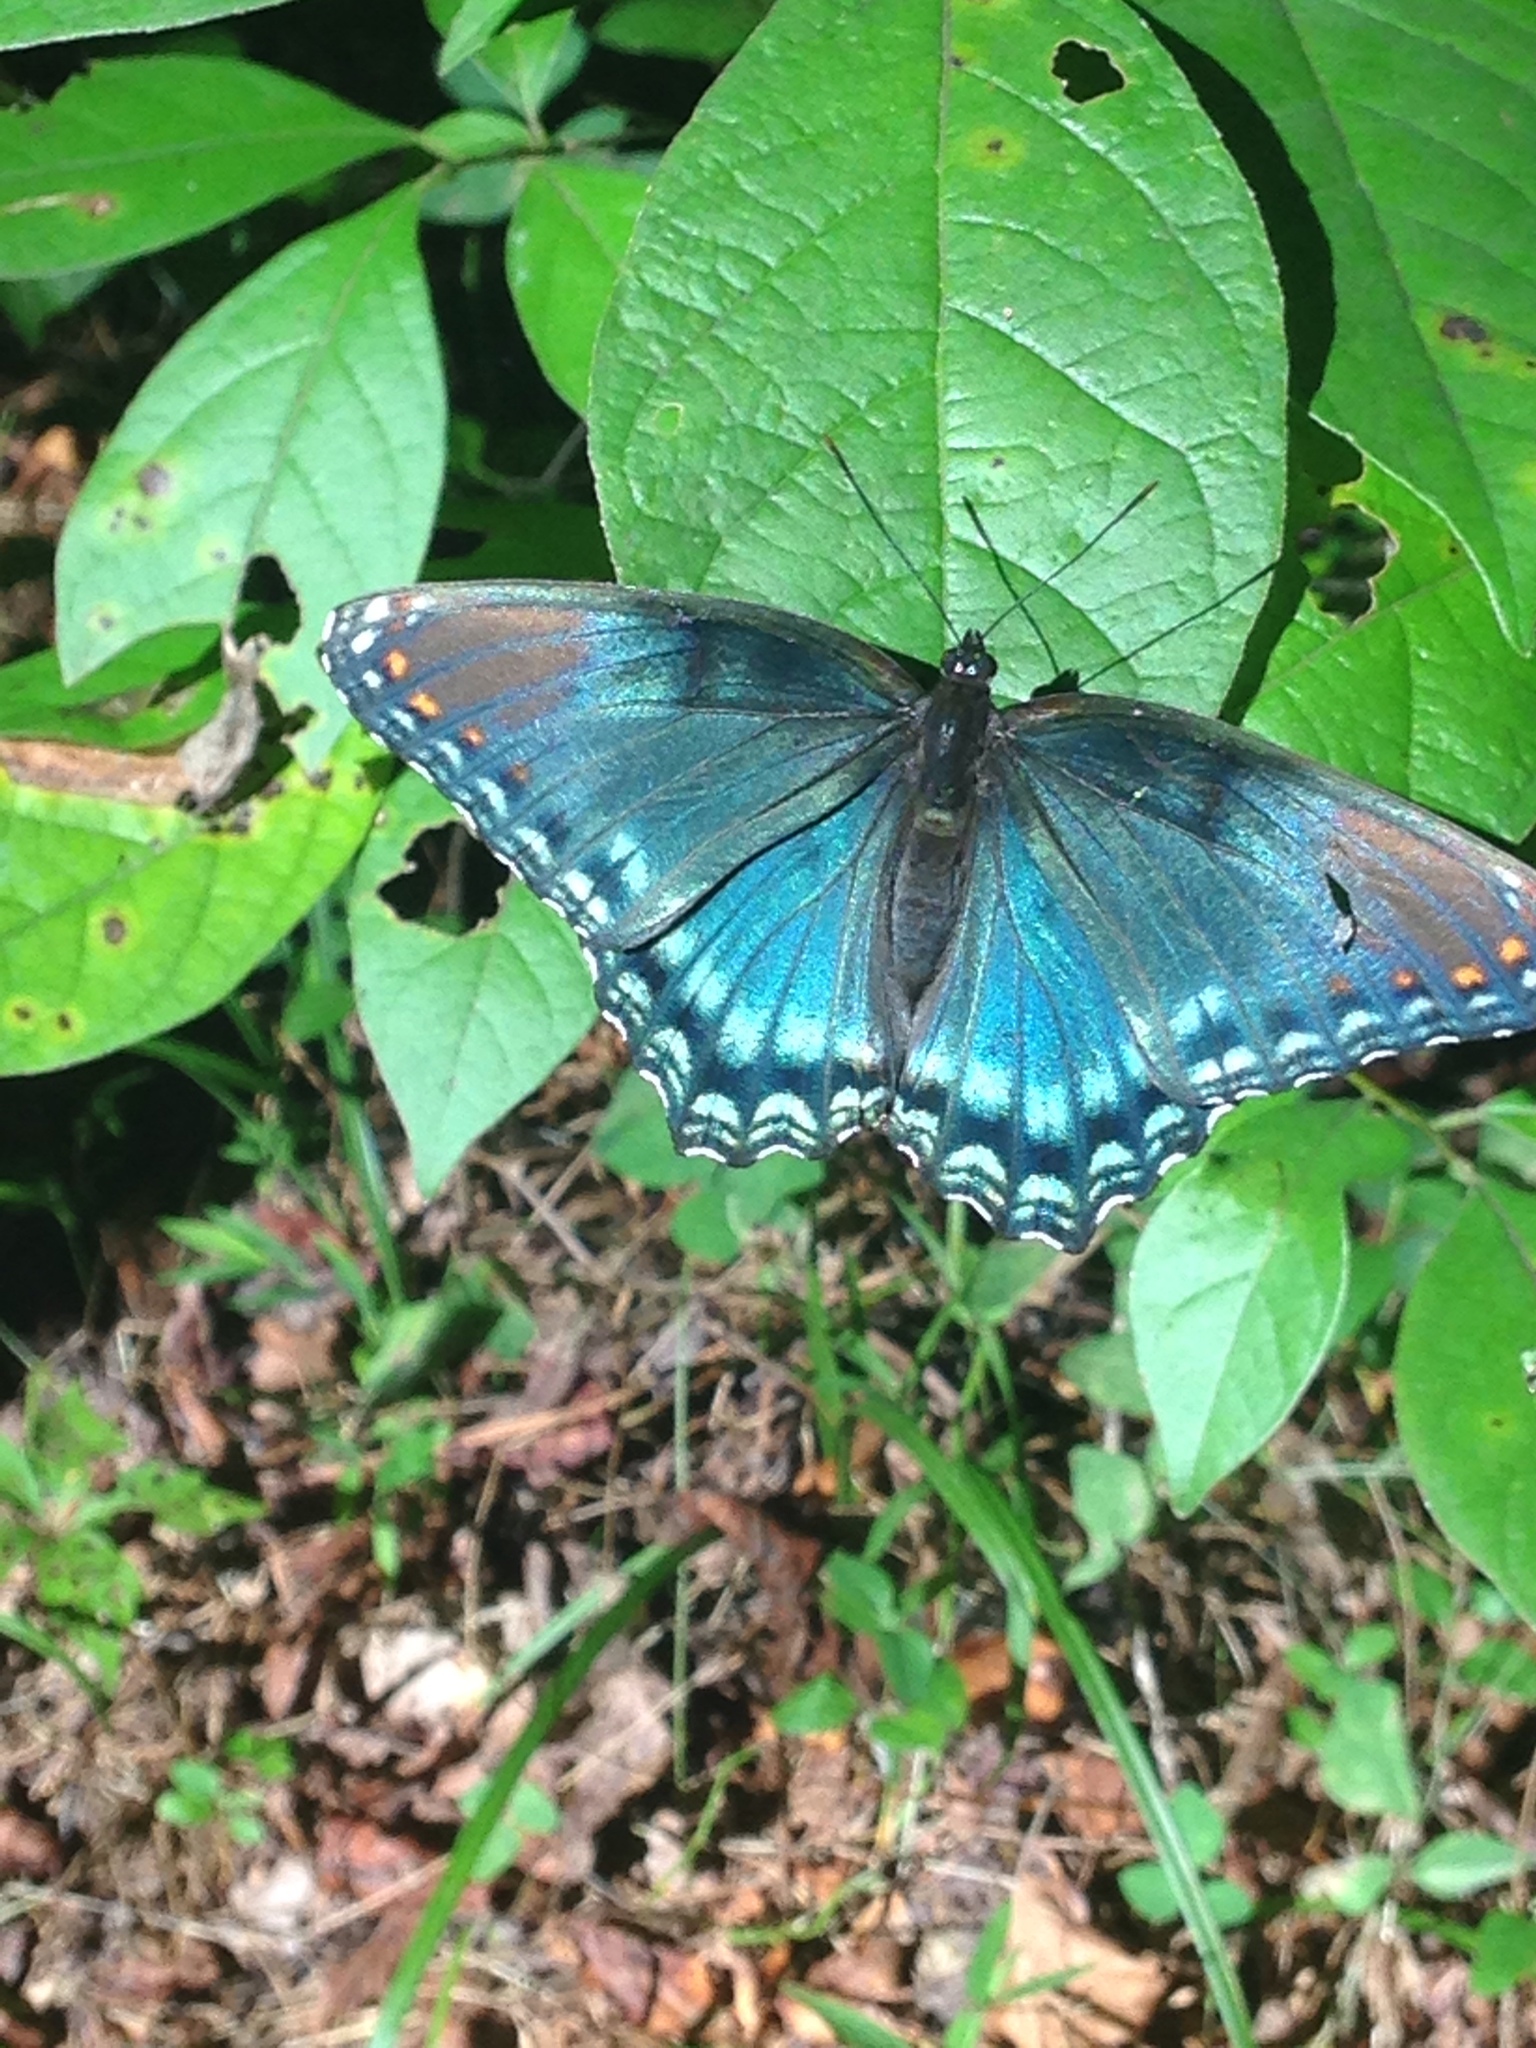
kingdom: Animalia
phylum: Arthropoda
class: Insecta
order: Lepidoptera
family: Nymphalidae
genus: Limenitis
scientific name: Limenitis astyanax
